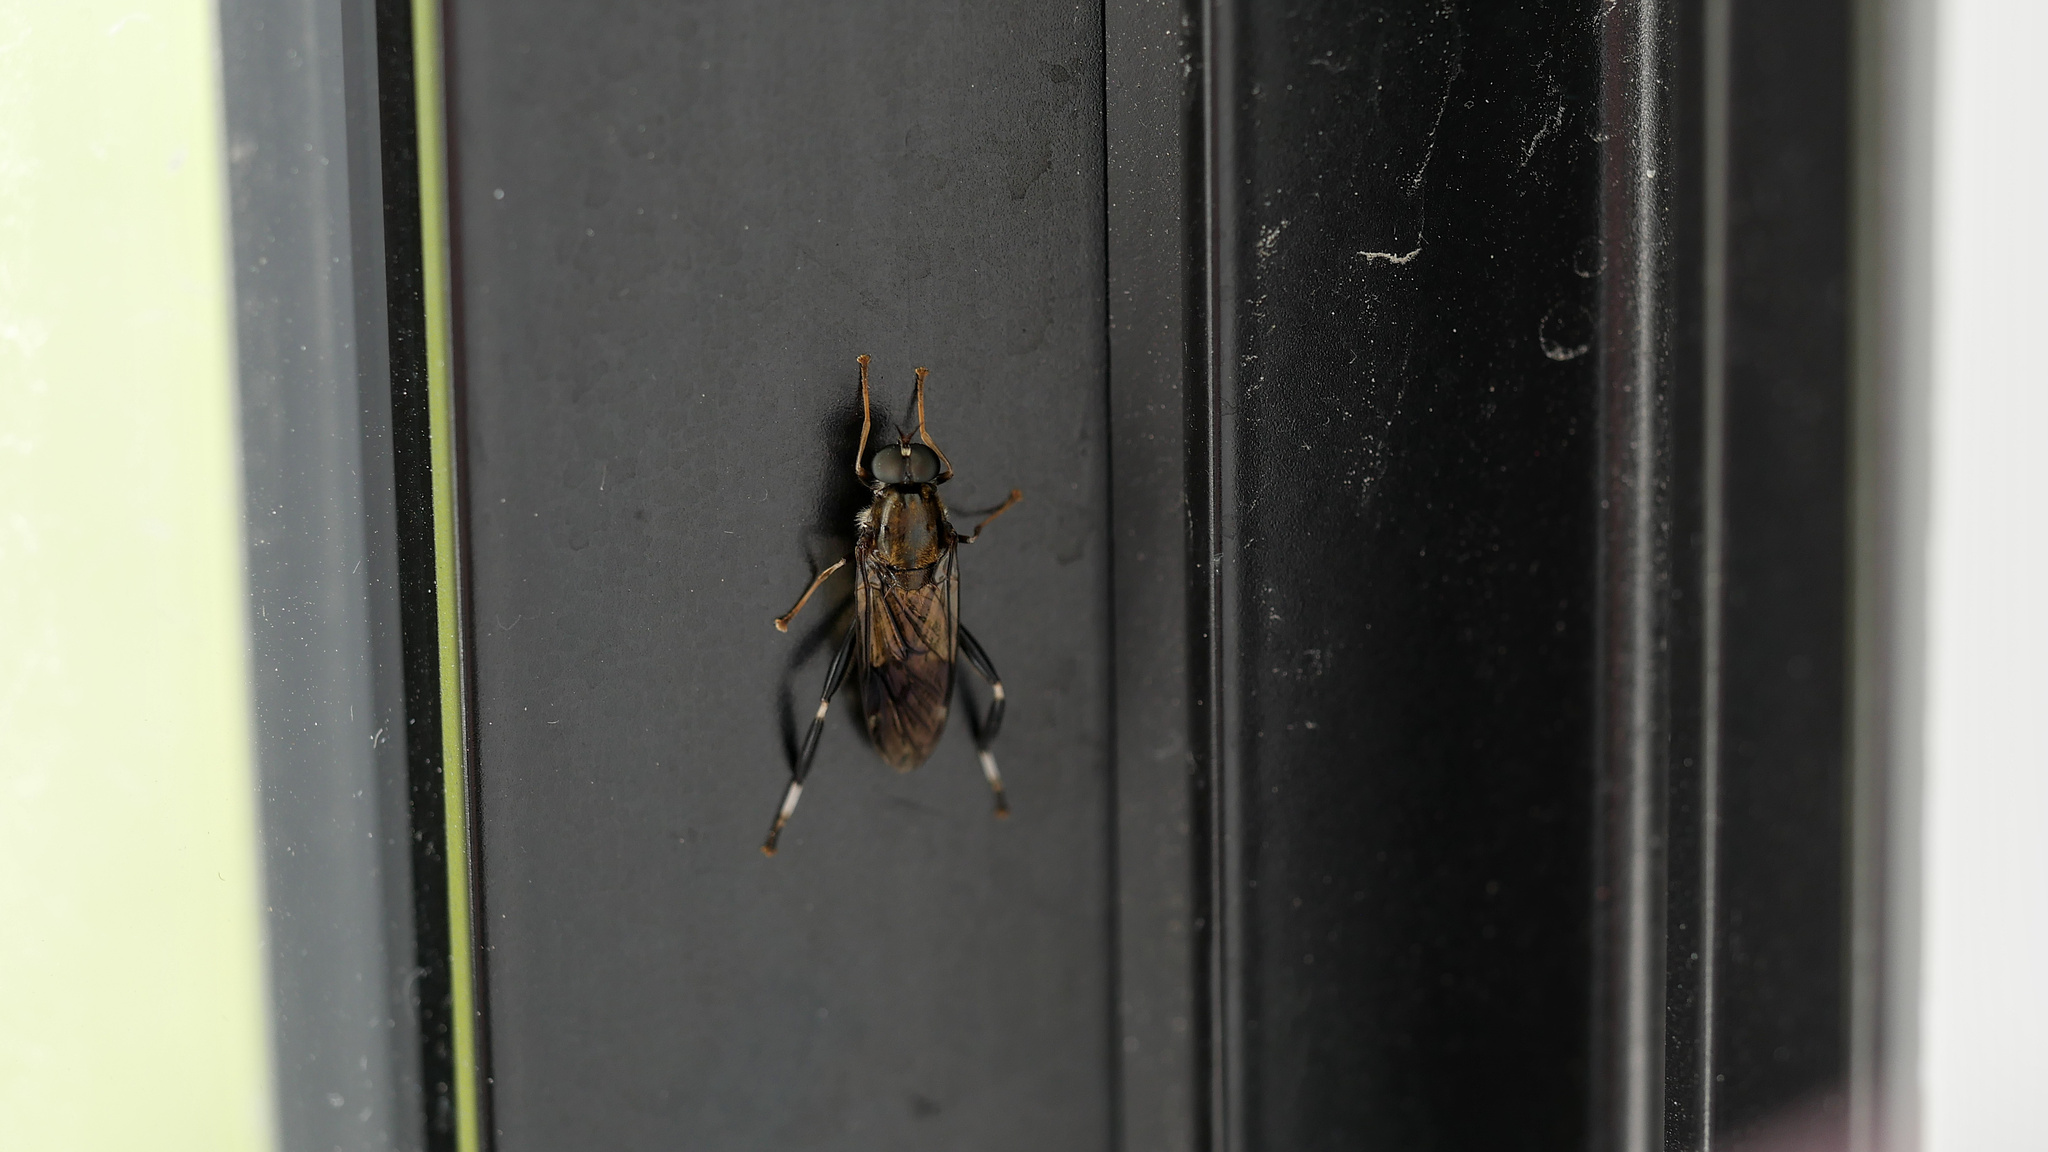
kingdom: Animalia
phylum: Arthropoda
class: Insecta
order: Diptera
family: Stratiomyidae
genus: Exaireta
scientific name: Exaireta spinigera
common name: Blue soldier fly
